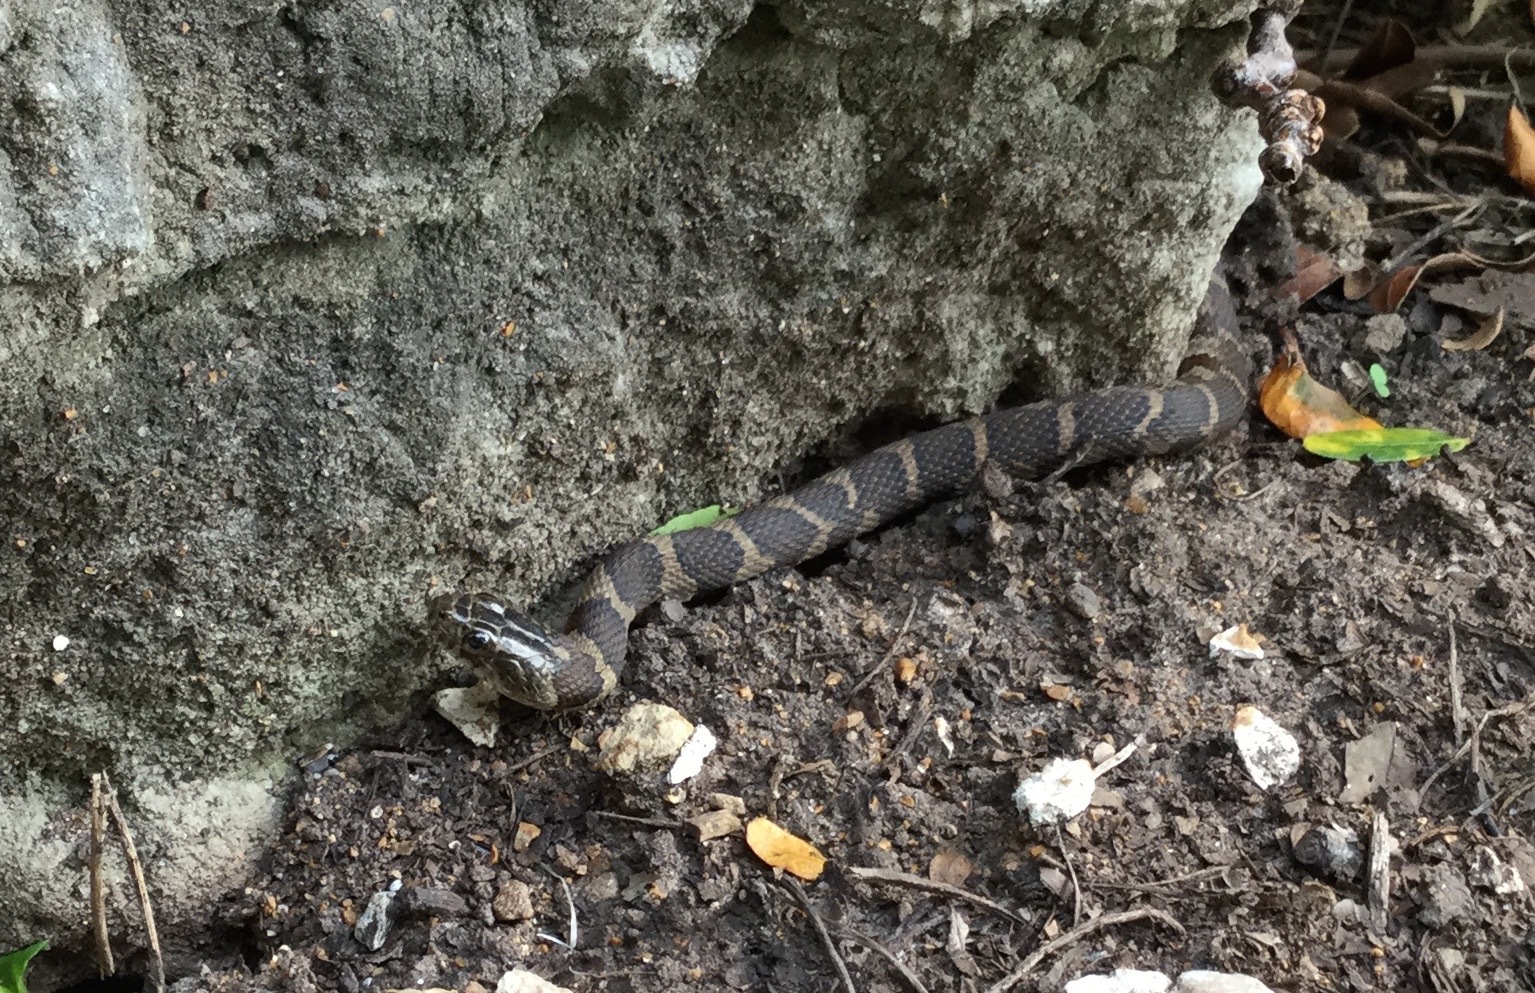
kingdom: Animalia
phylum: Chordata
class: Squamata
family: Colubridae
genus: Nerodia
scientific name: Nerodia sipedon
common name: Northern water snake
